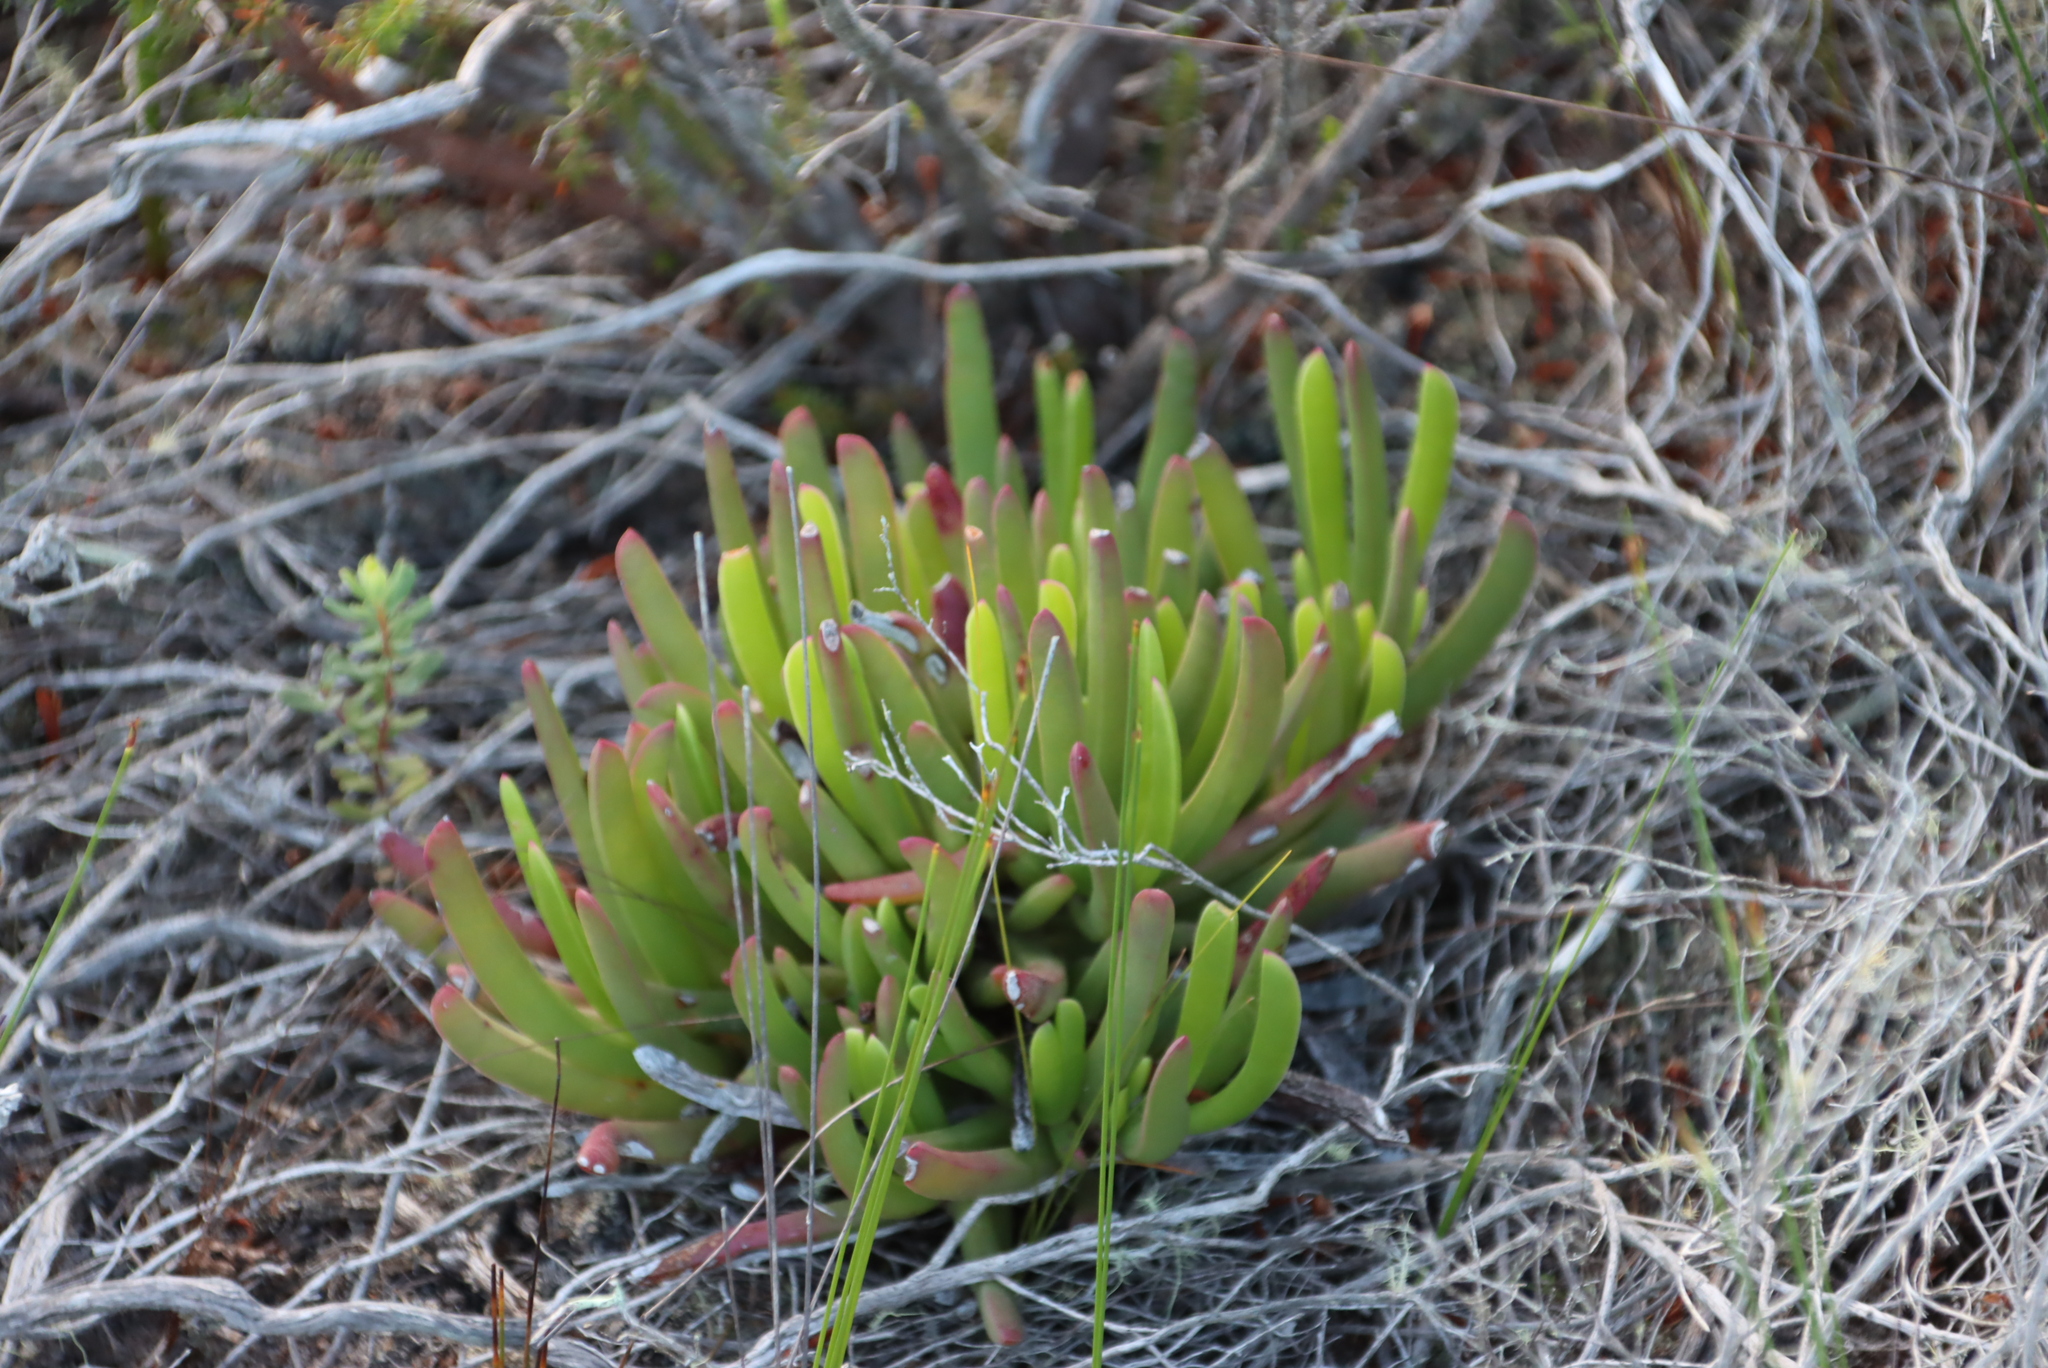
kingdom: Plantae
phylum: Tracheophyta
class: Magnoliopsida
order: Caryophyllales
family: Aizoaceae
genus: Carpobrotus
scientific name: Carpobrotus muirii
